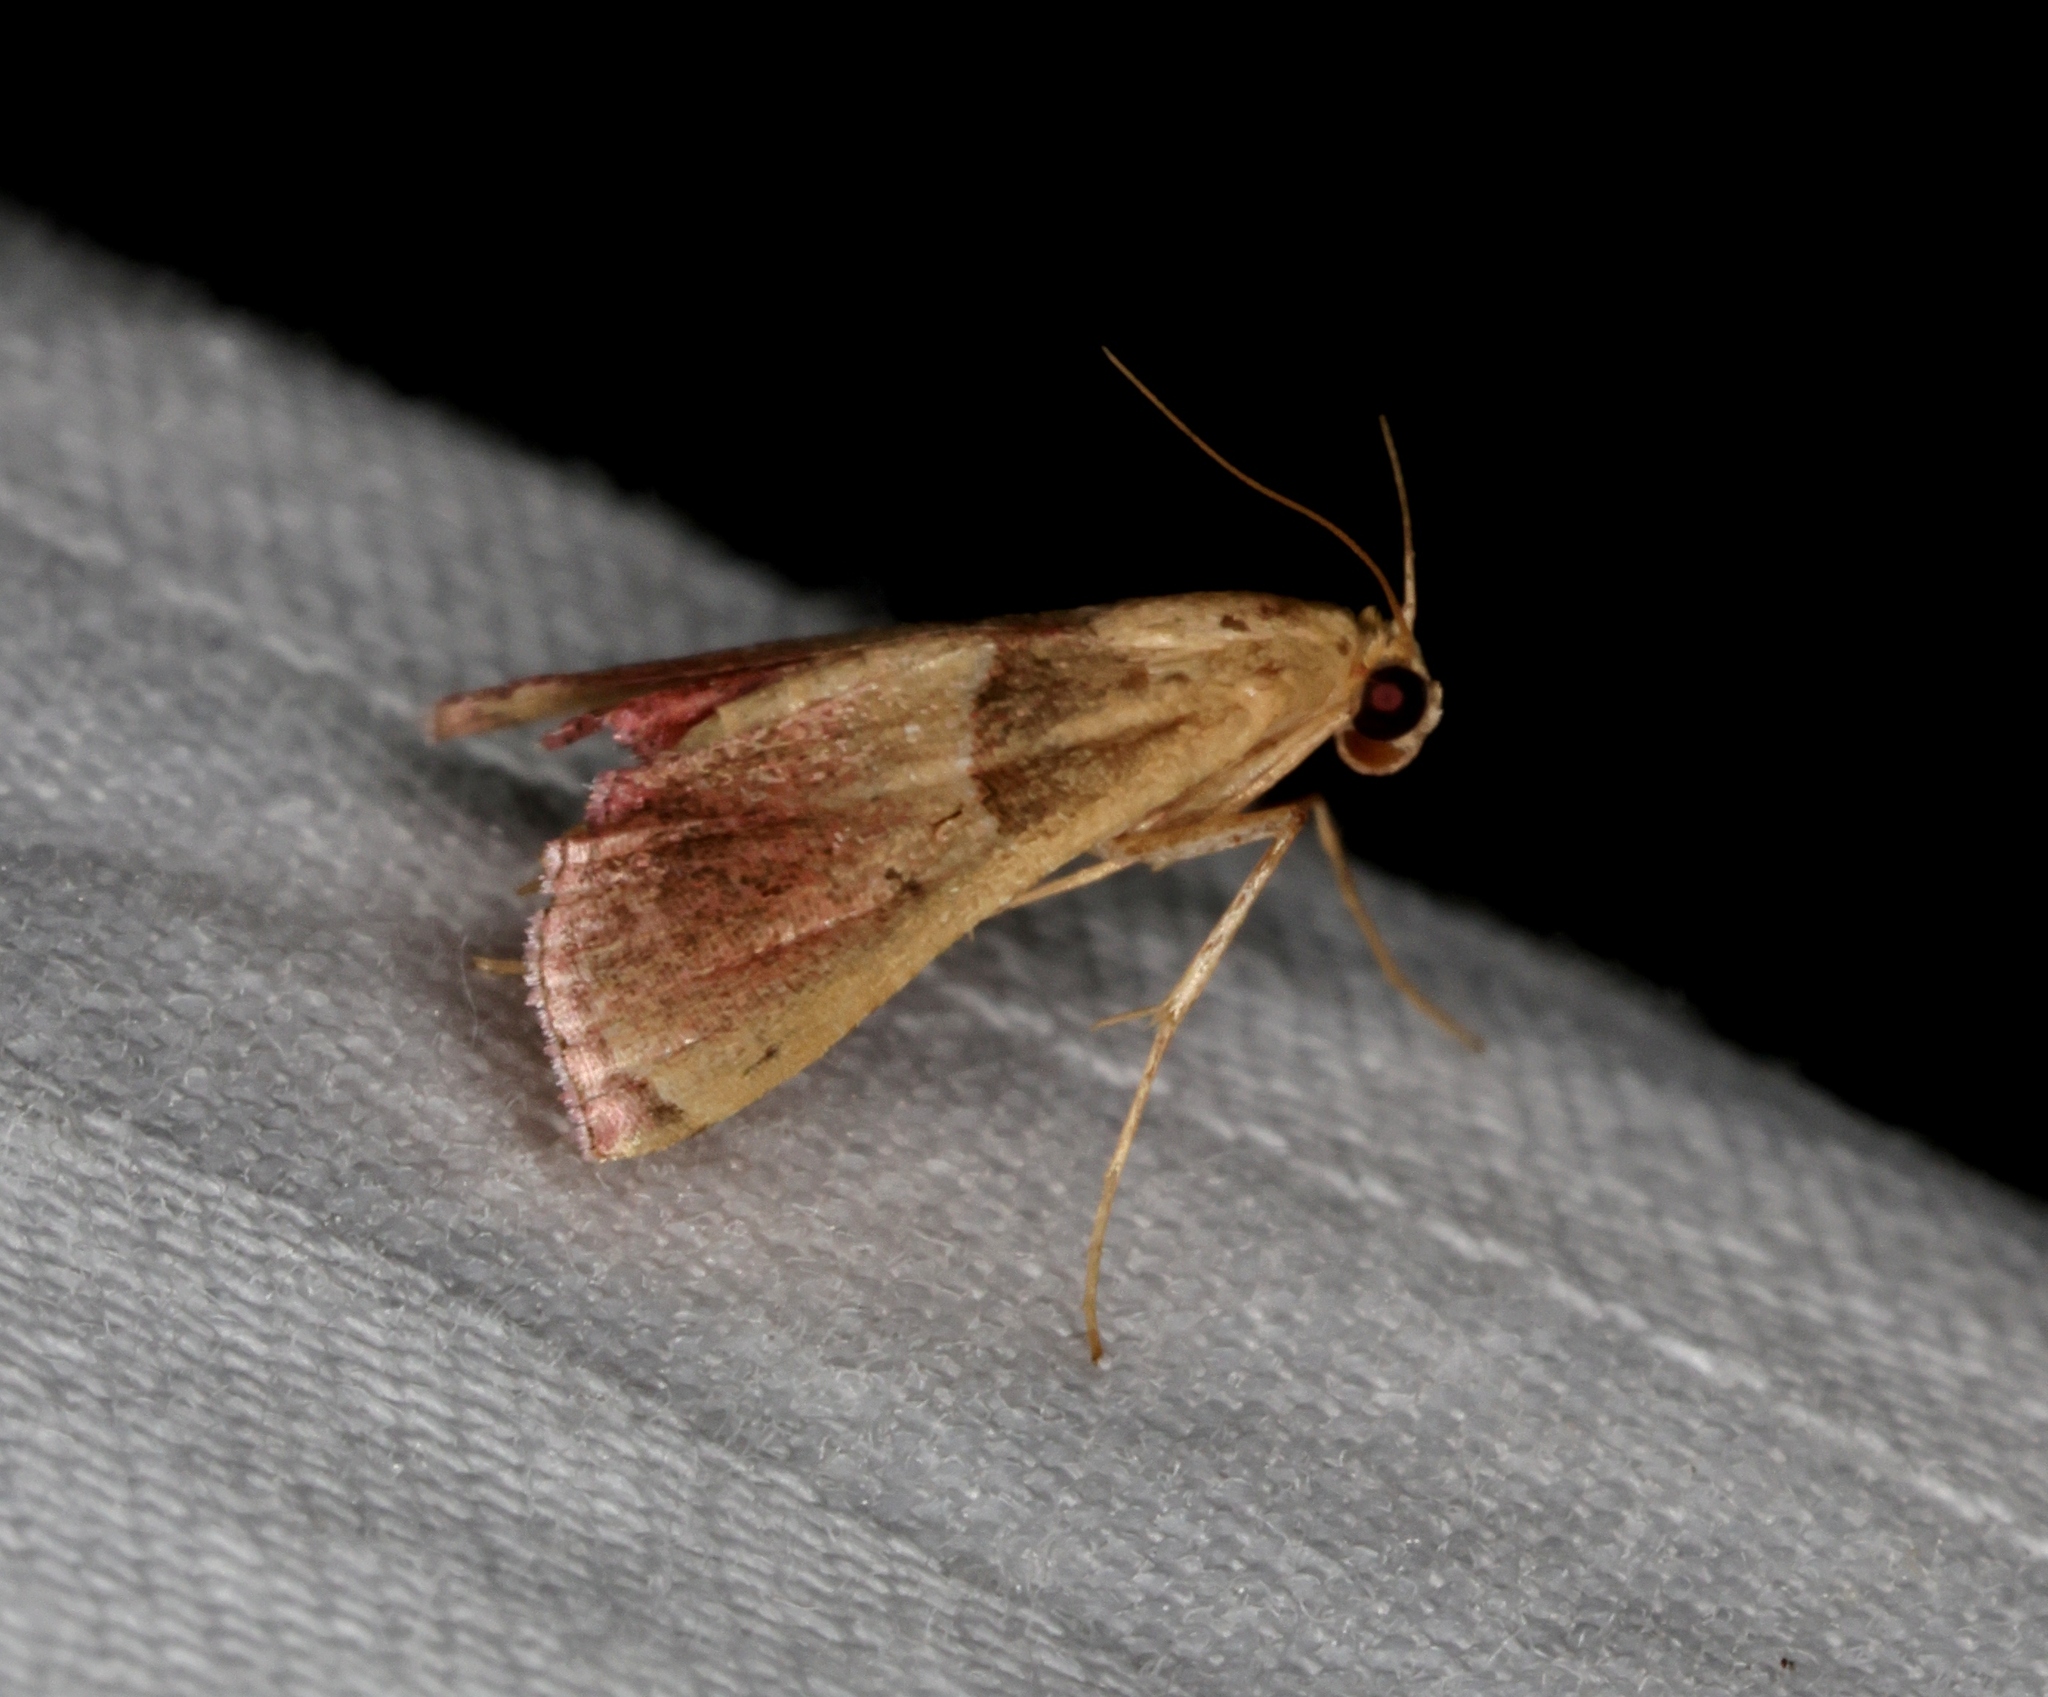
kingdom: Animalia
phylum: Arthropoda
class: Insecta
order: Lepidoptera
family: Pyralidae
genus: Endotricha
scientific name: Endotricha repandalis
